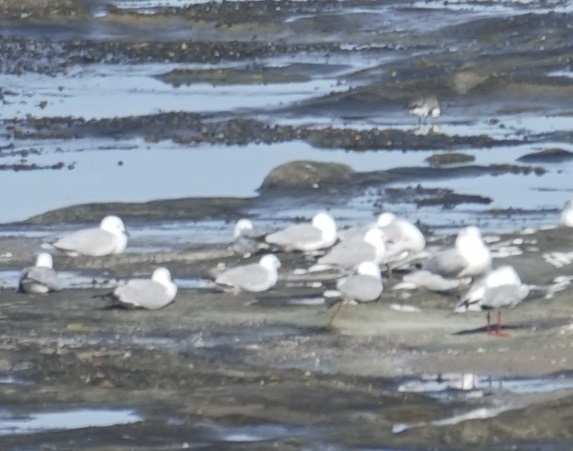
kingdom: Animalia
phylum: Chordata
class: Aves
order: Charadriiformes
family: Laridae
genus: Chroicocephalus
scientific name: Chroicocephalus novaehollandiae
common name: Silver gull
